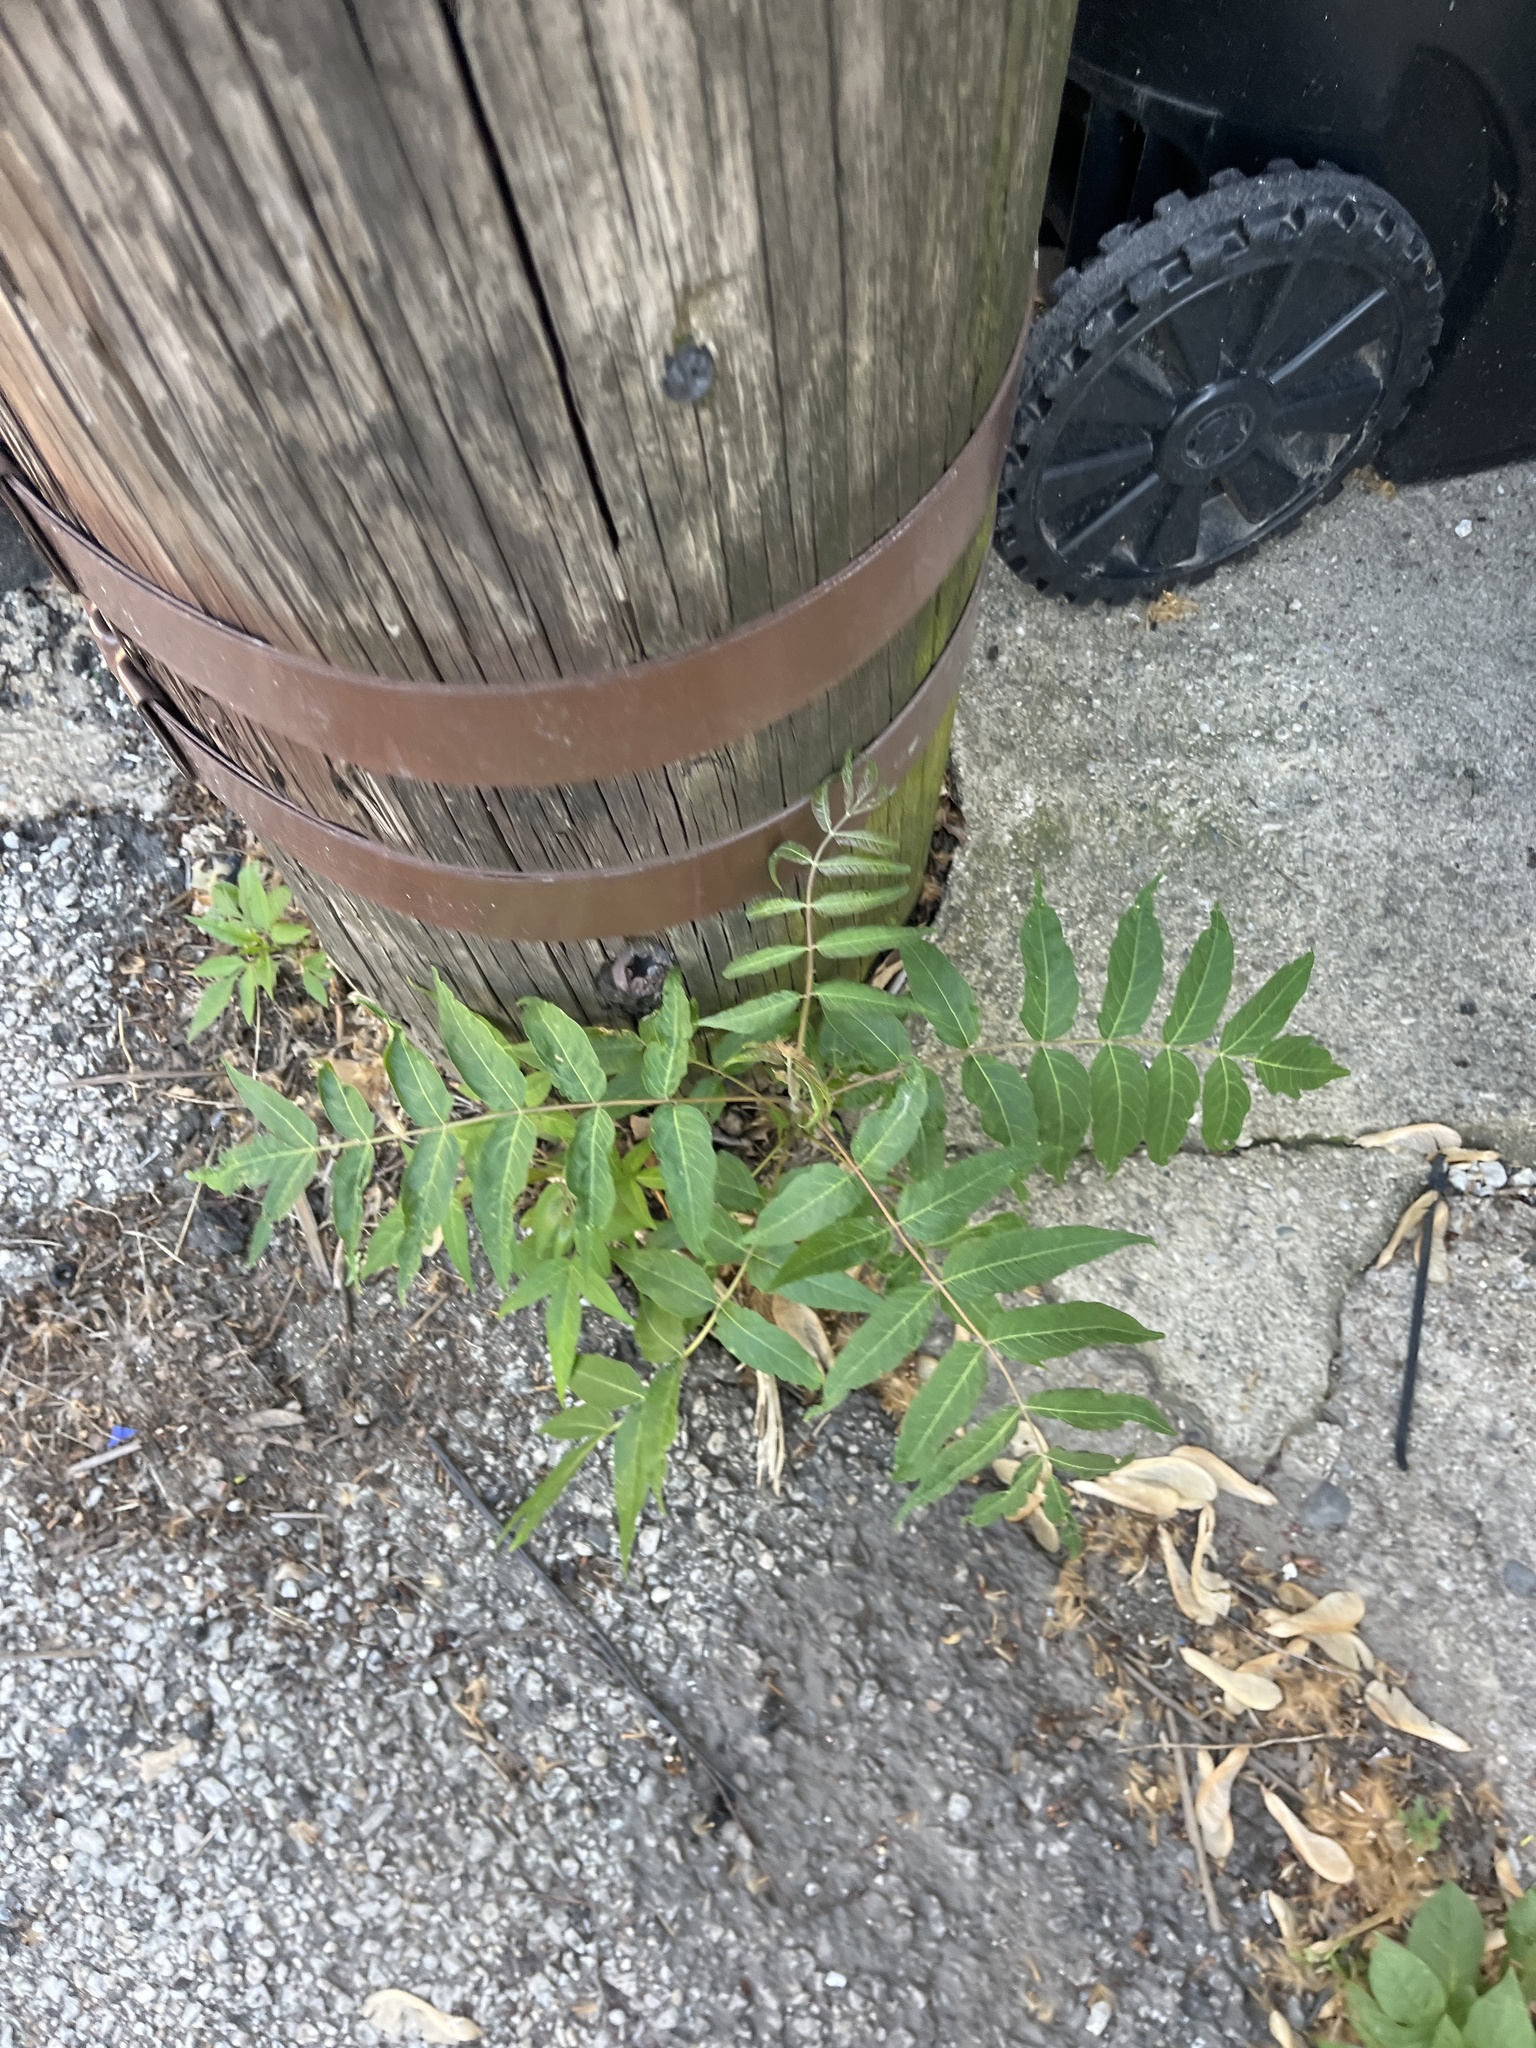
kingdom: Plantae
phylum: Tracheophyta
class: Magnoliopsida
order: Sapindales
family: Simaroubaceae
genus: Ailanthus
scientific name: Ailanthus altissima
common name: Tree-of-heaven
